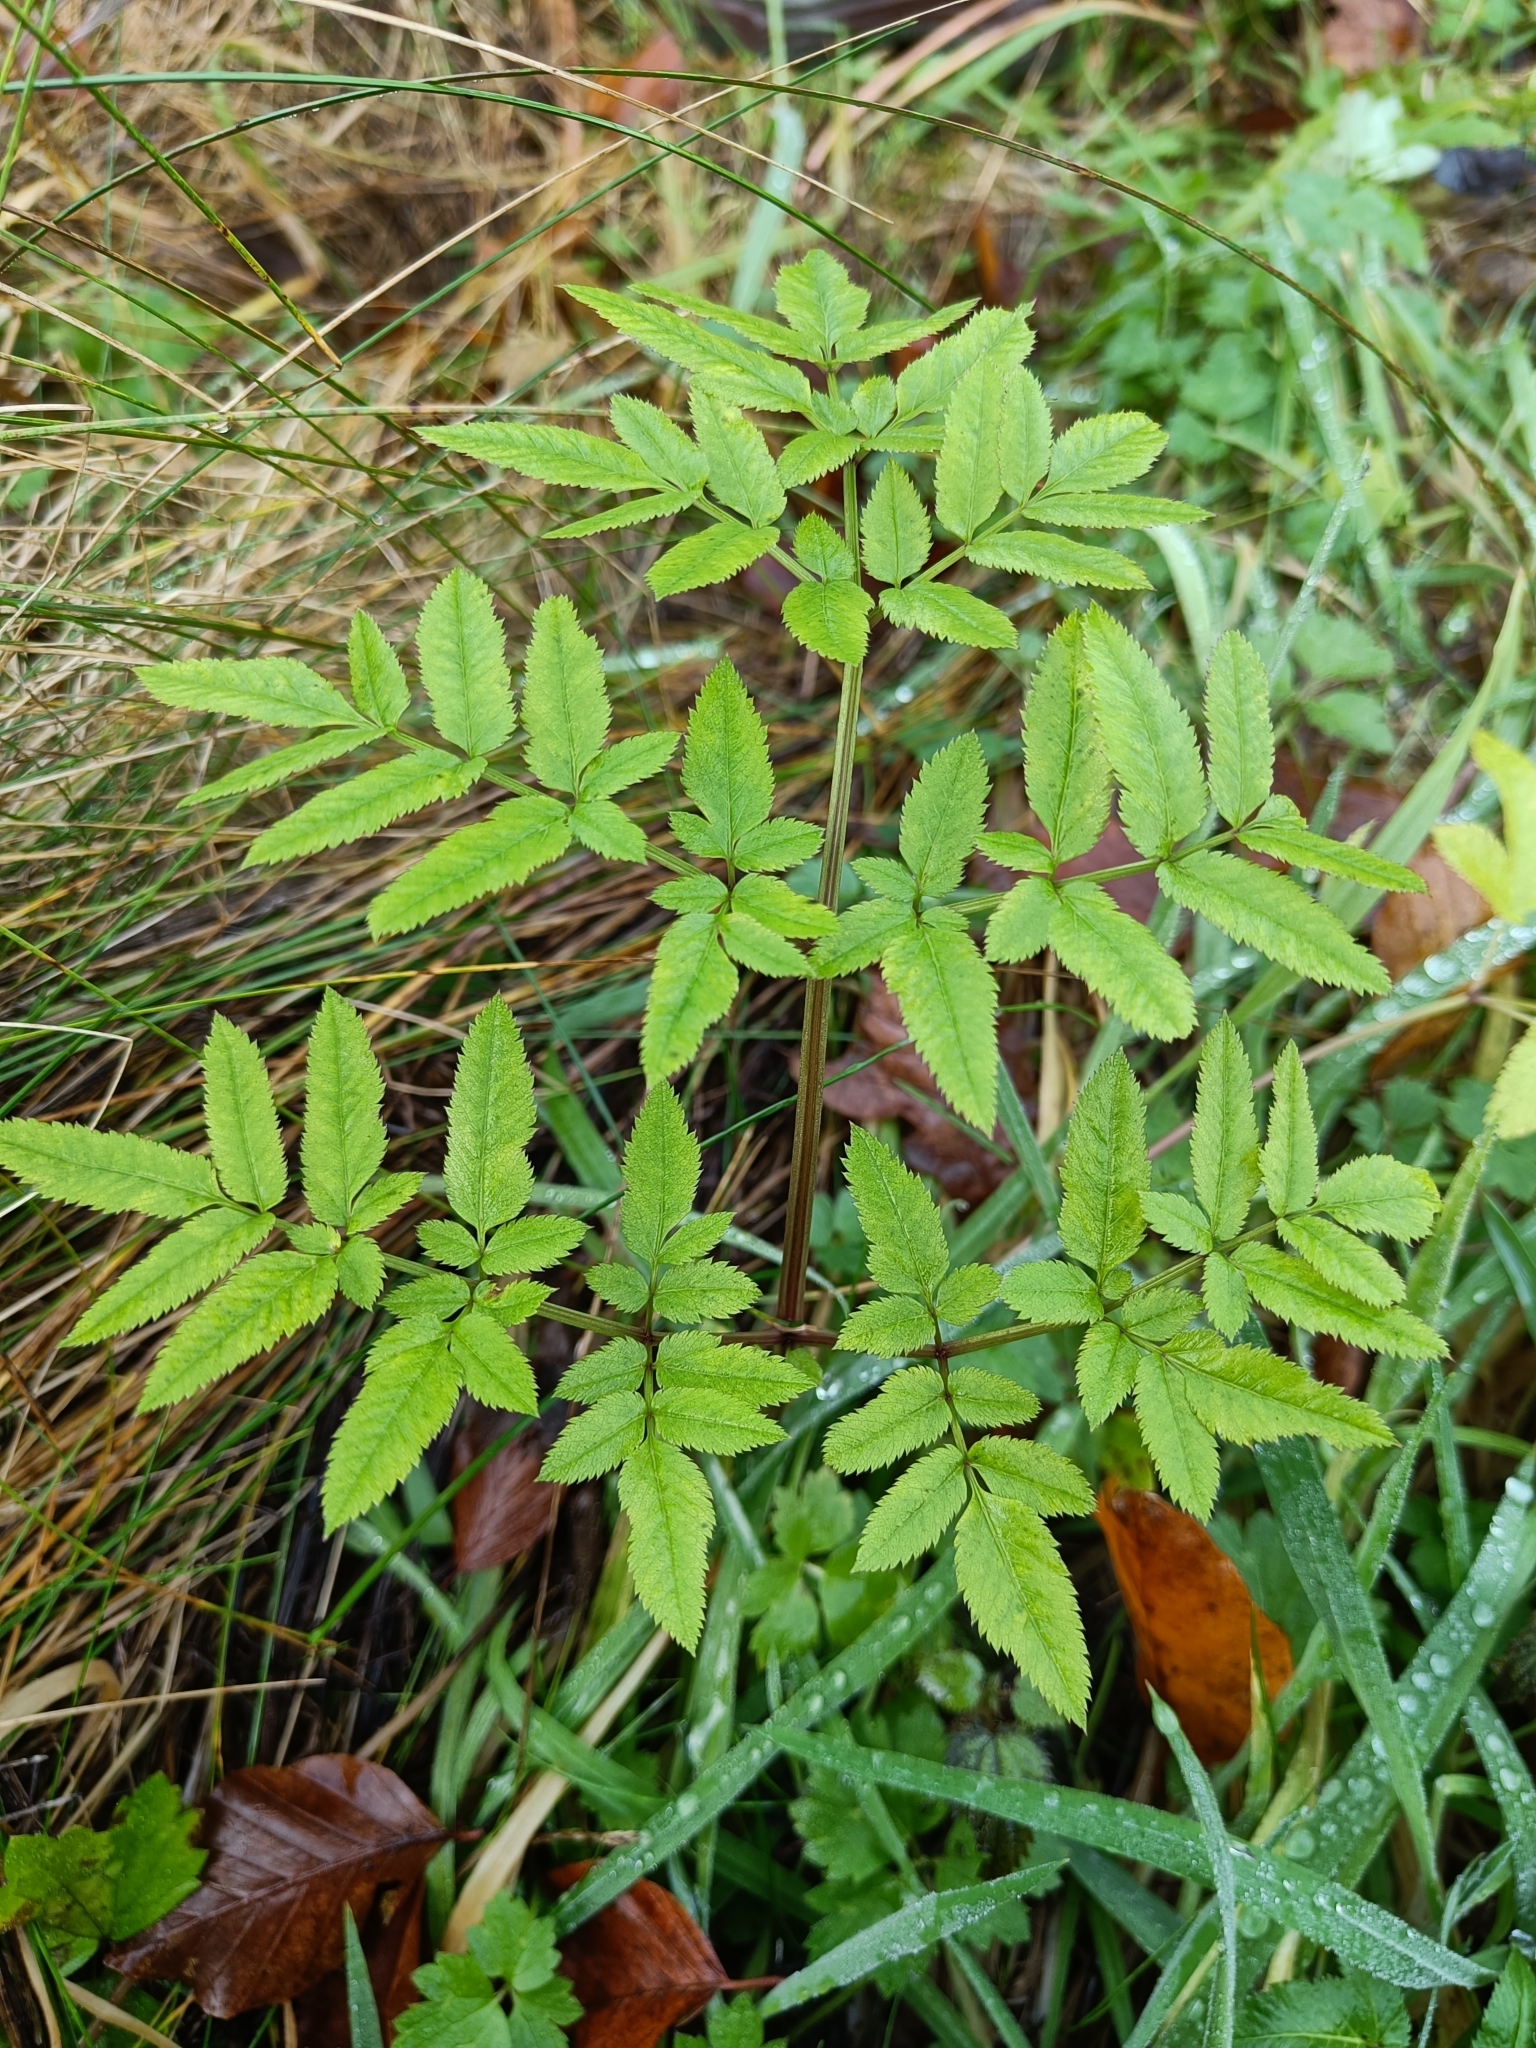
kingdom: Plantae
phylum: Tracheophyta
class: Magnoliopsida
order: Apiales
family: Apiaceae
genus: Angelica
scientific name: Angelica sylvestris
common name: Wild angelica
